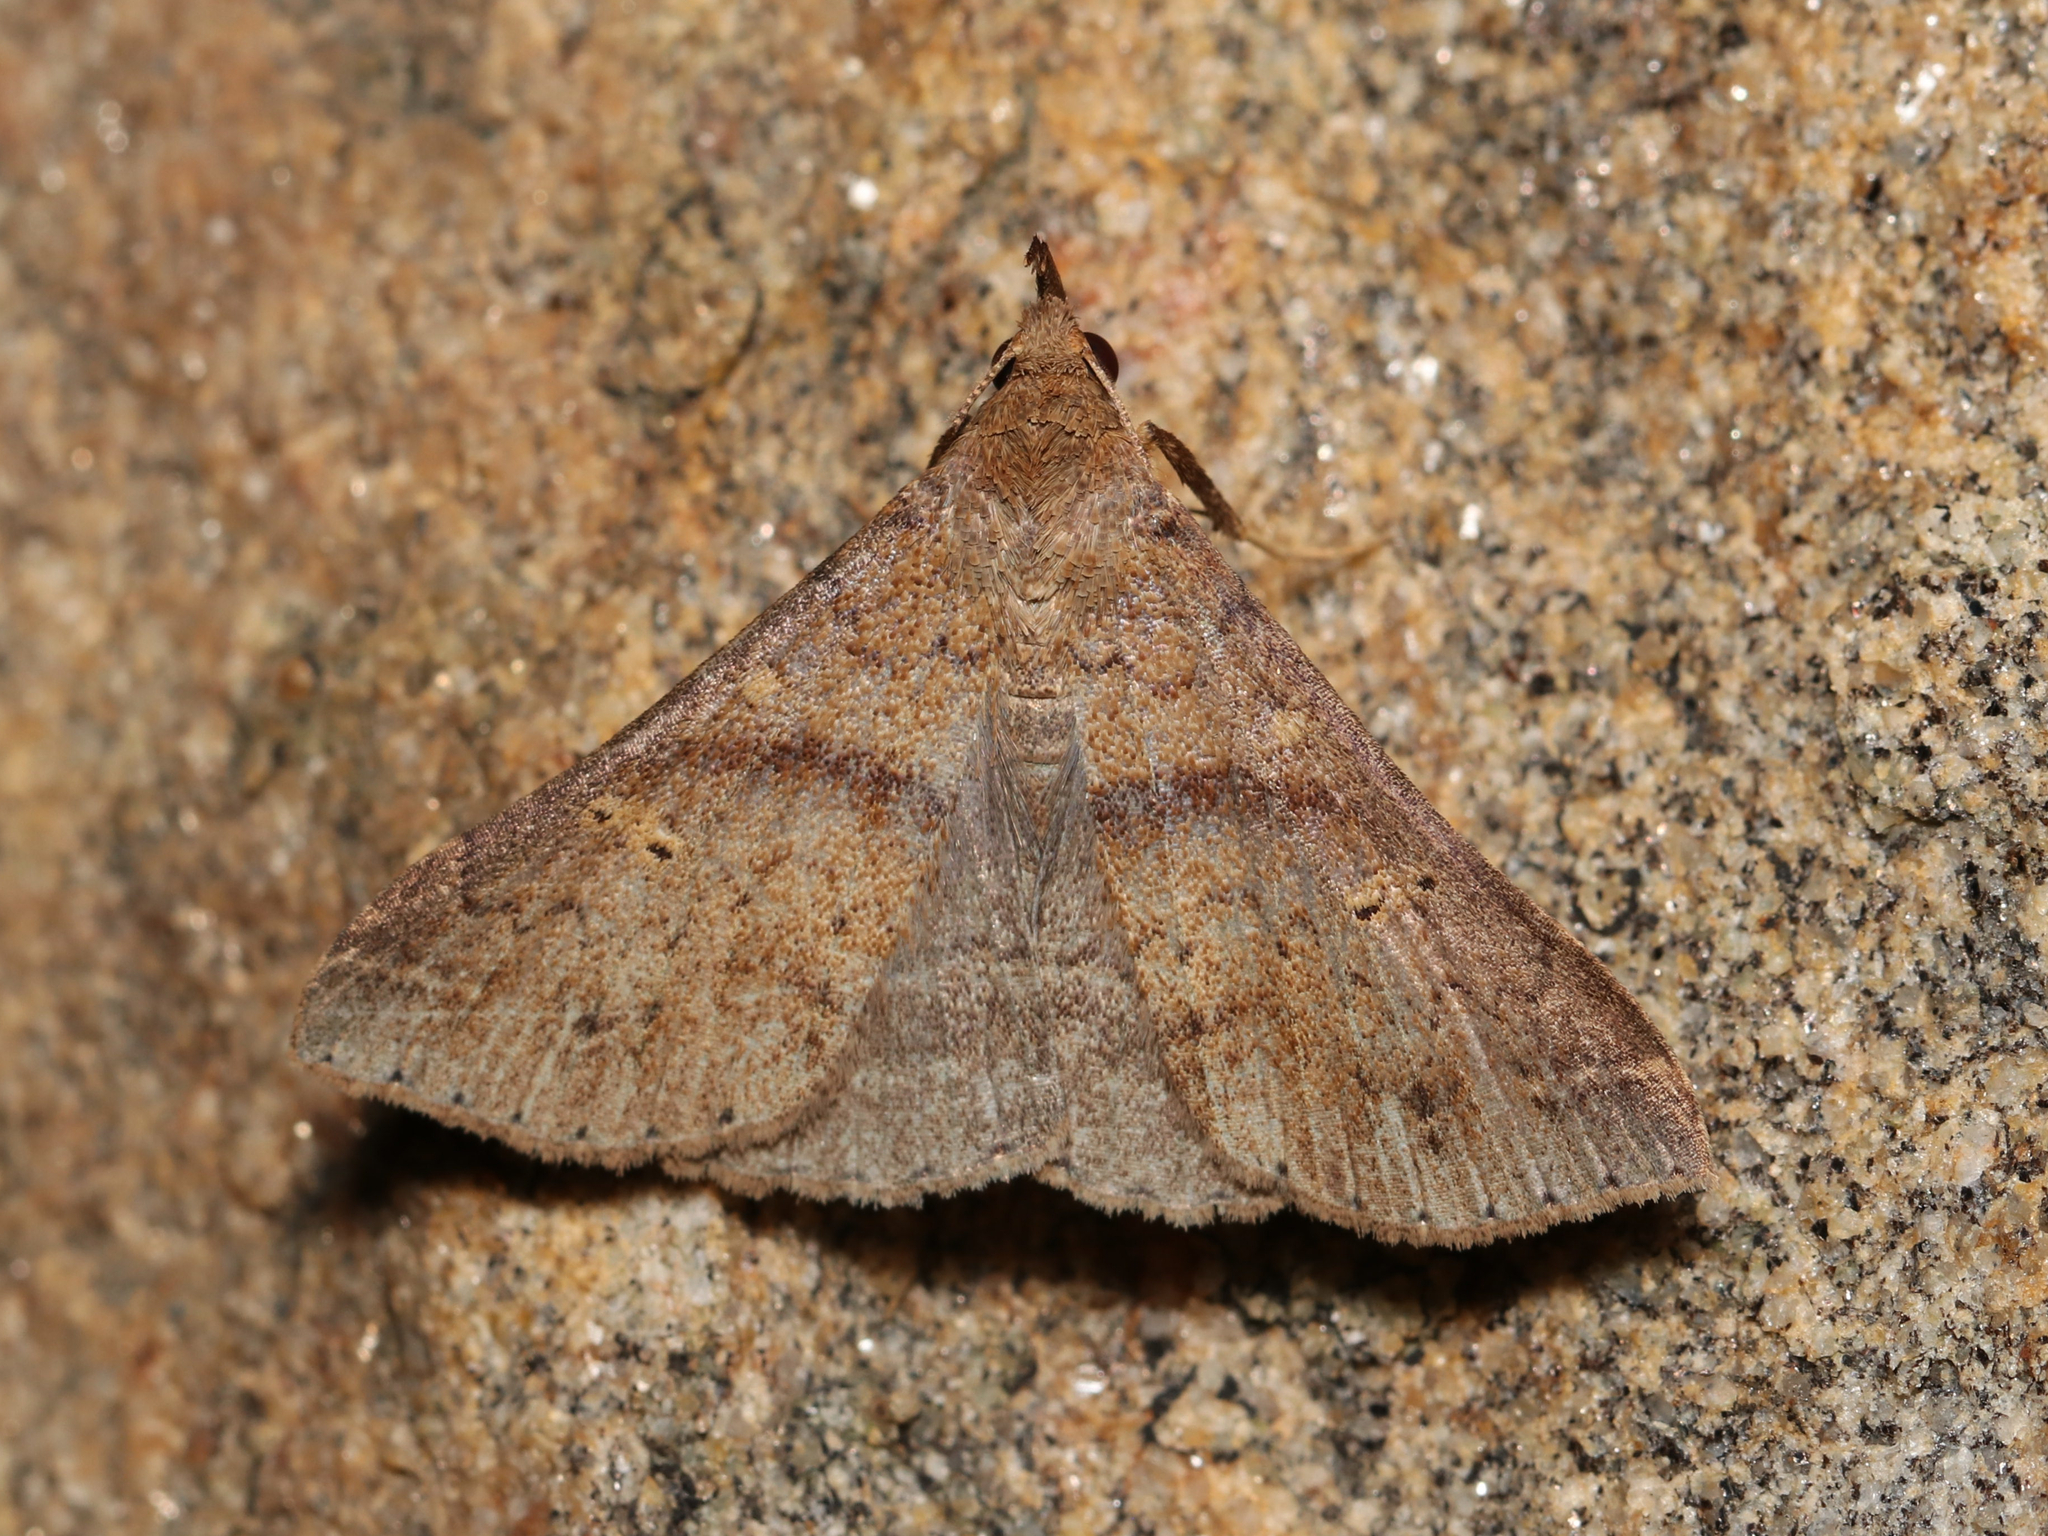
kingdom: Animalia
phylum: Arthropoda
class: Insecta
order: Lepidoptera
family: Erebidae
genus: Renia
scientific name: Renia discoloralis
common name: Discolored renia moth
